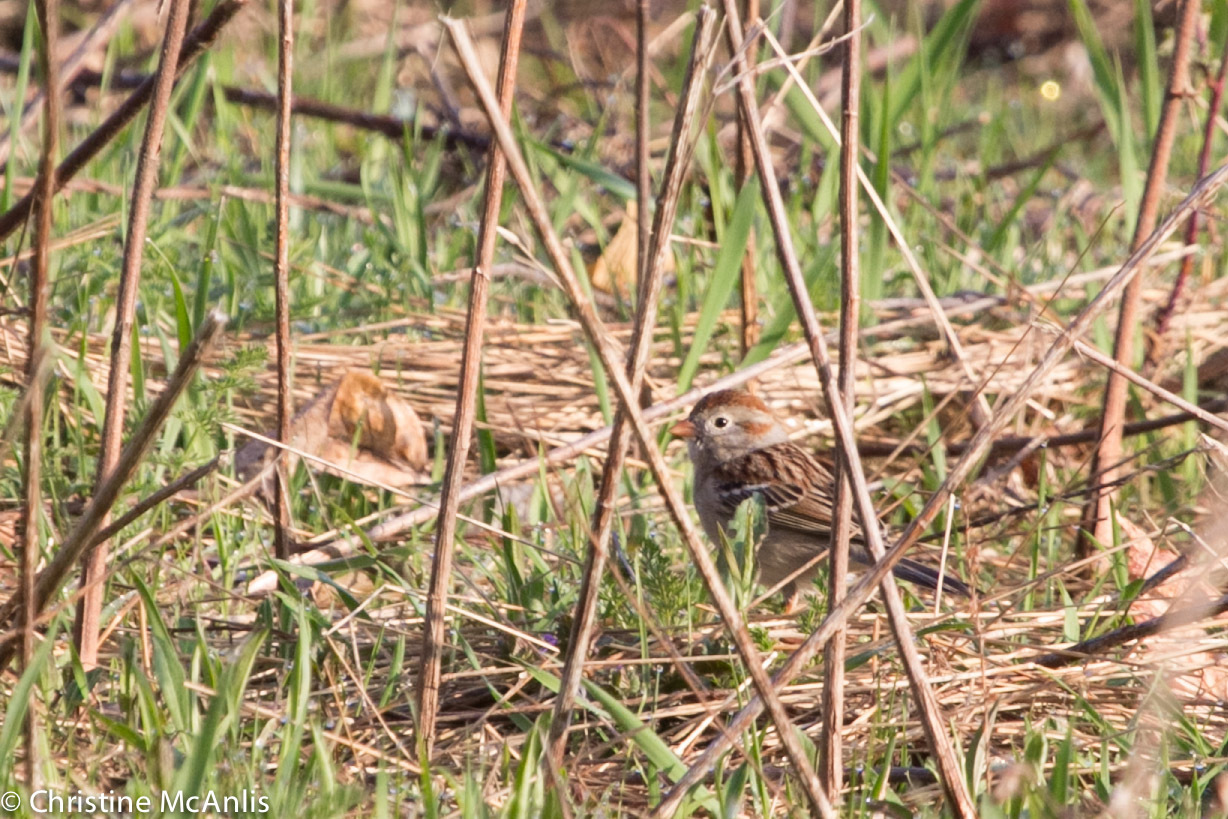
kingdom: Animalia
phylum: Chordata
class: Aves
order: Passeriformes
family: Passerellidae
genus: Spizella
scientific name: Spizella pusilla
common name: Field sparrow
